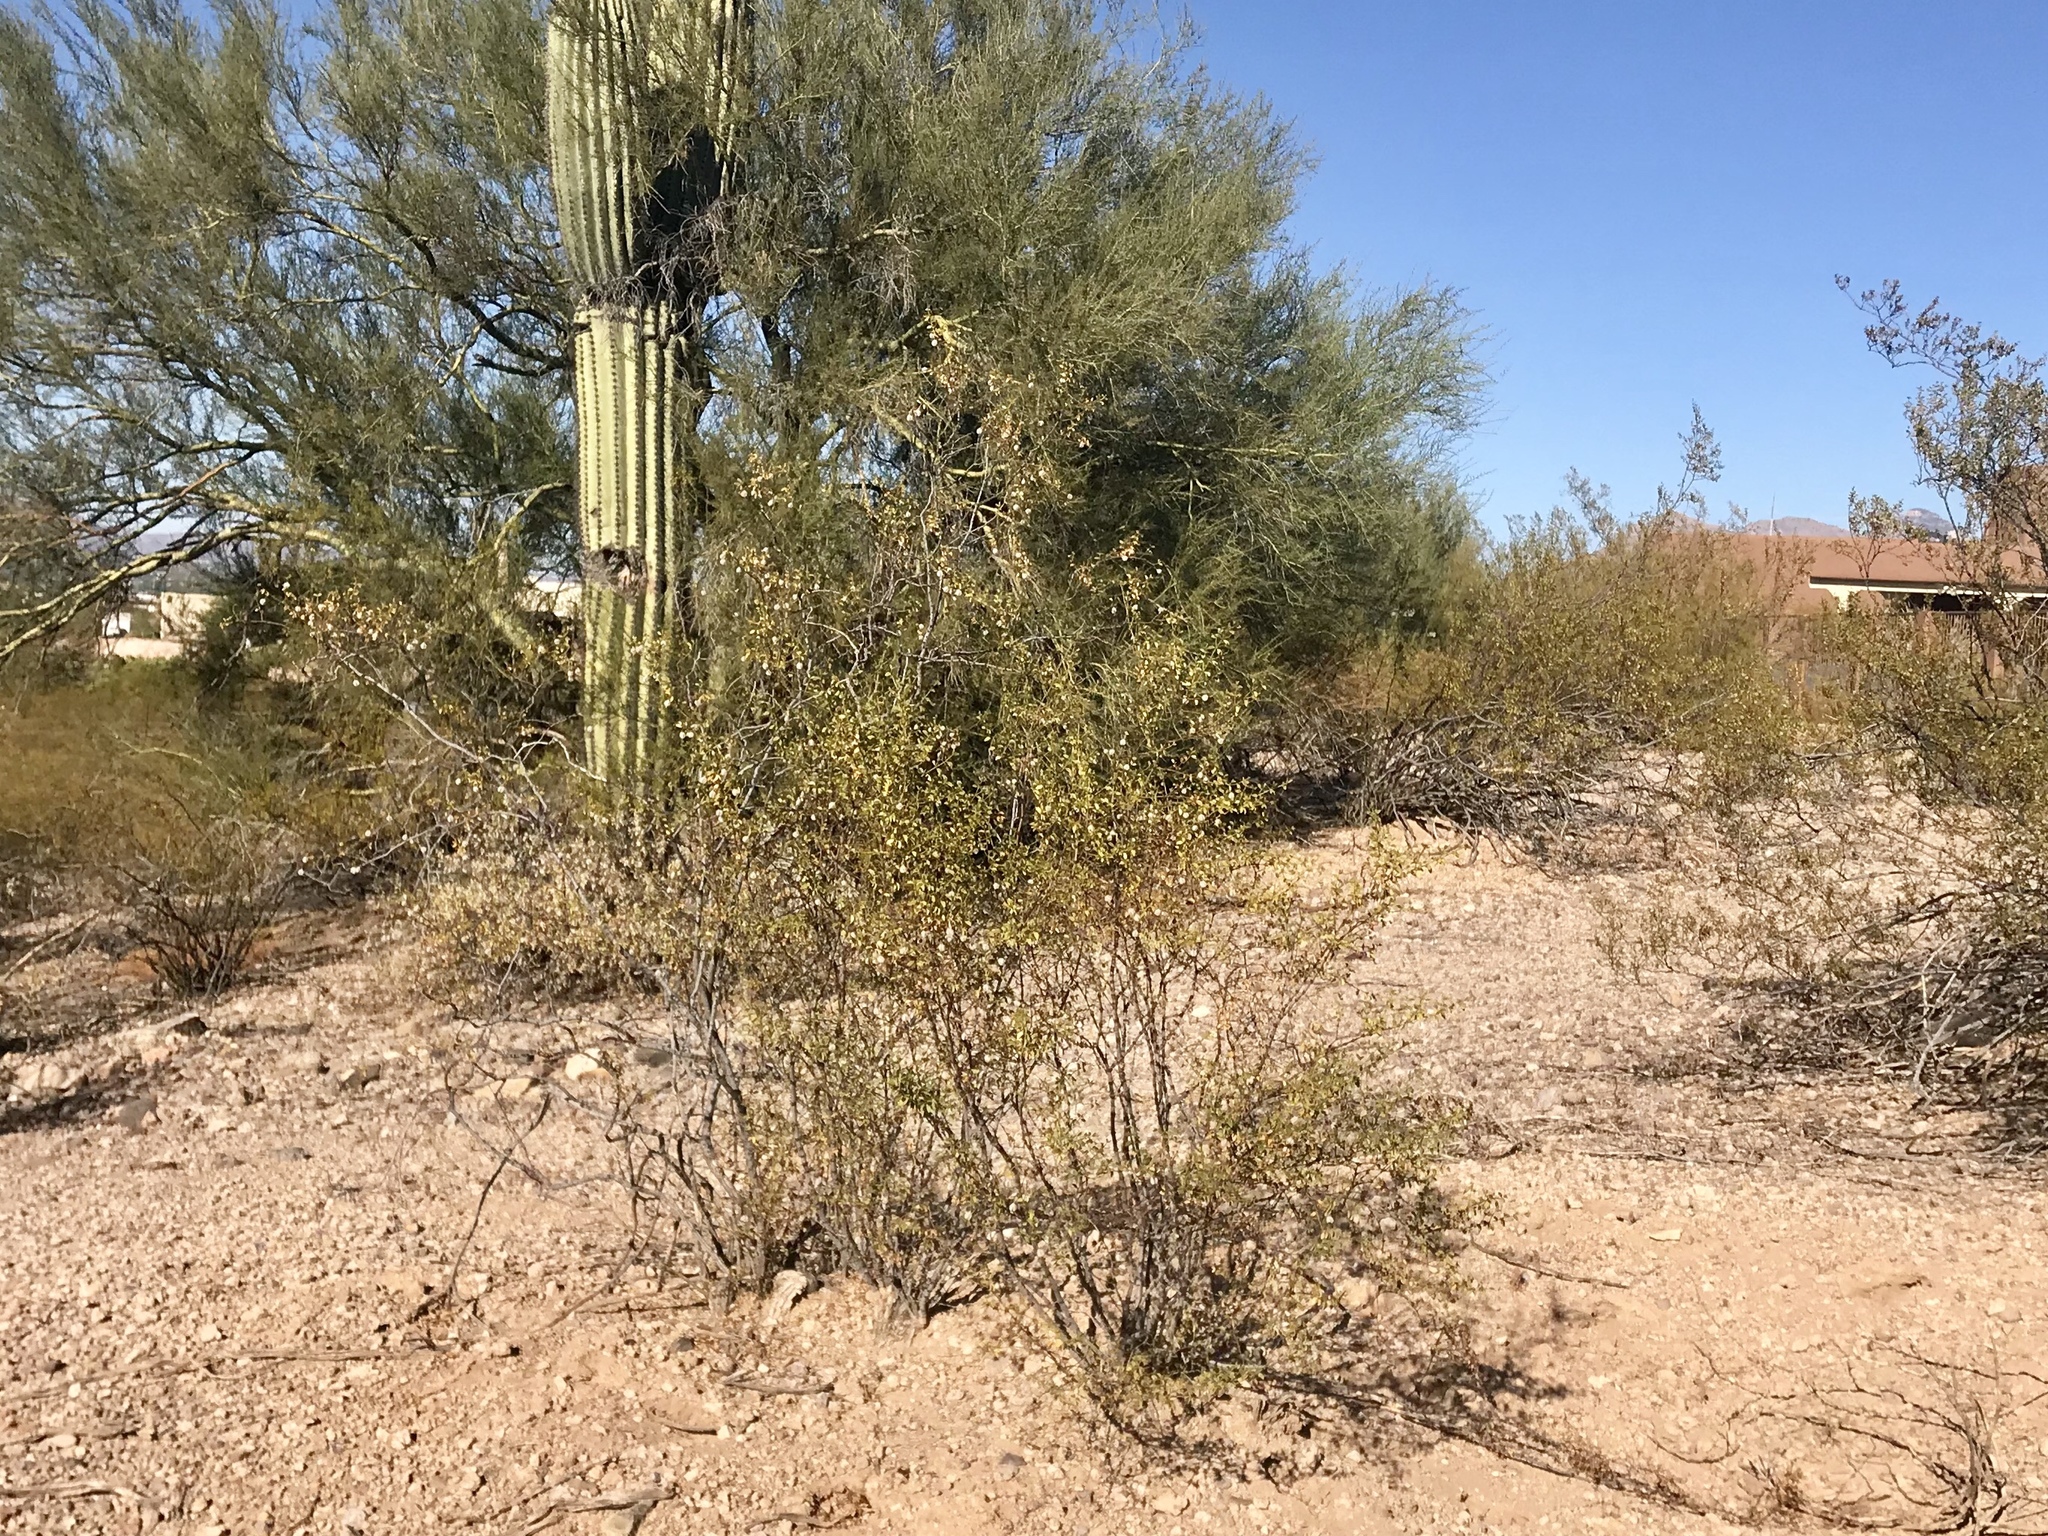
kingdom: Plantae
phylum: Tracheophyta
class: Magnoliopsida
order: Zygophyllales
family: Zygophyllaceae
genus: Larrea
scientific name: Larrea tridentata
